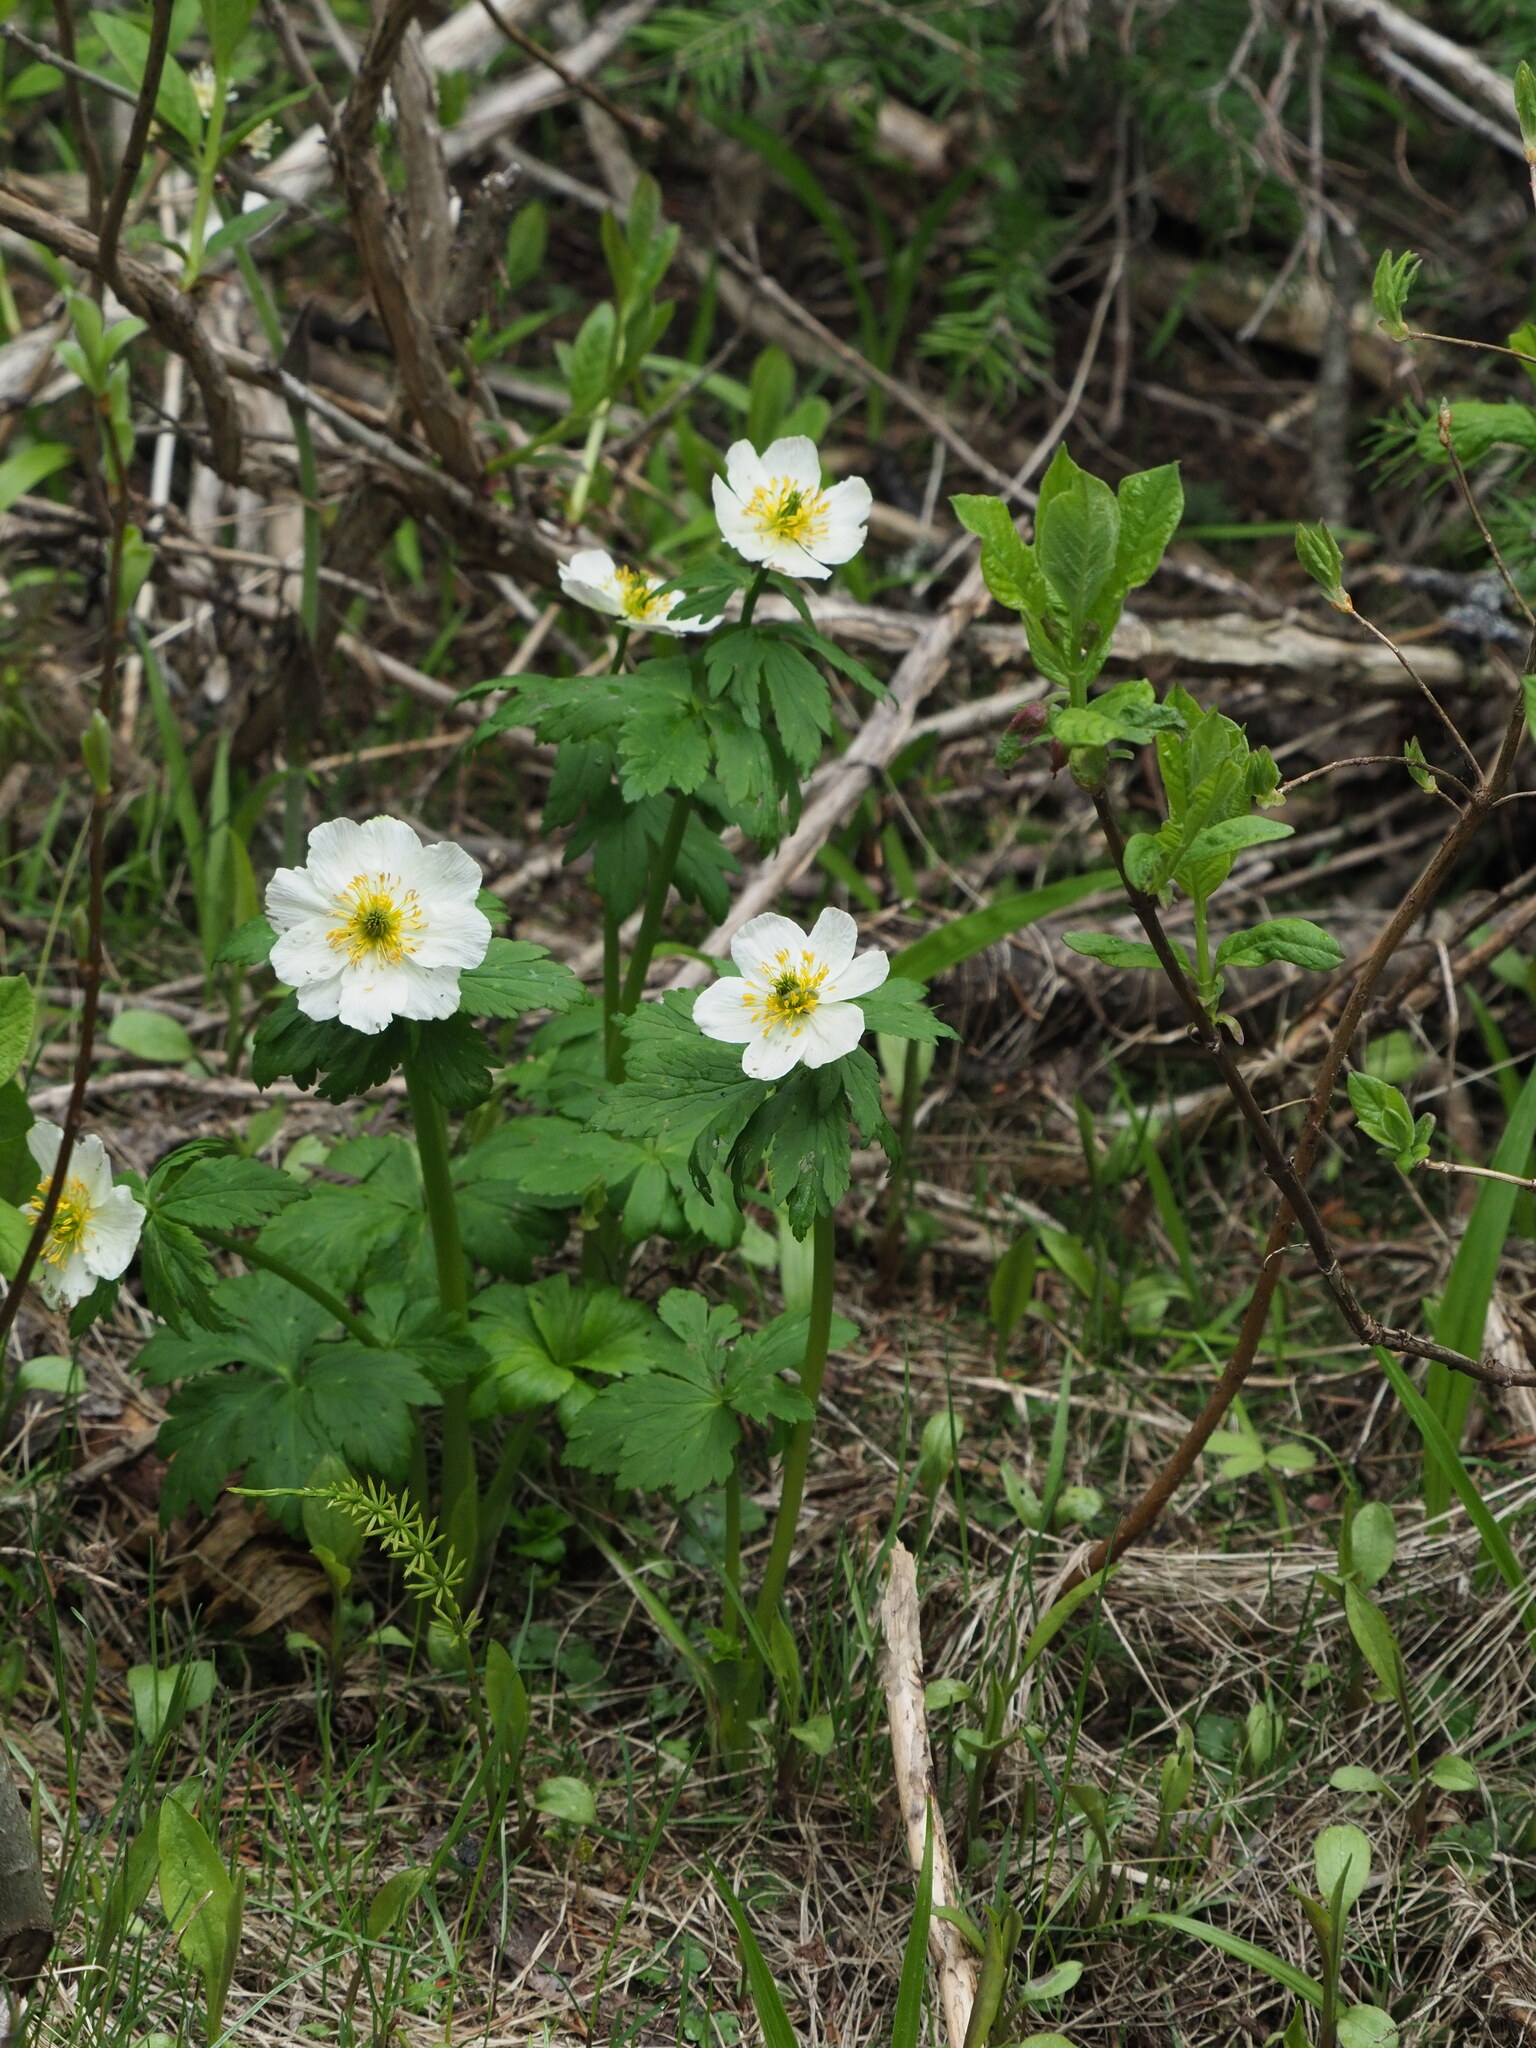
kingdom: Plantae
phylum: Tracheophyta
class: Magnoliopsida
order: Ranunculales
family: Ranunculaceae
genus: Trollius
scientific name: Trollius laxus
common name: American globeflower
